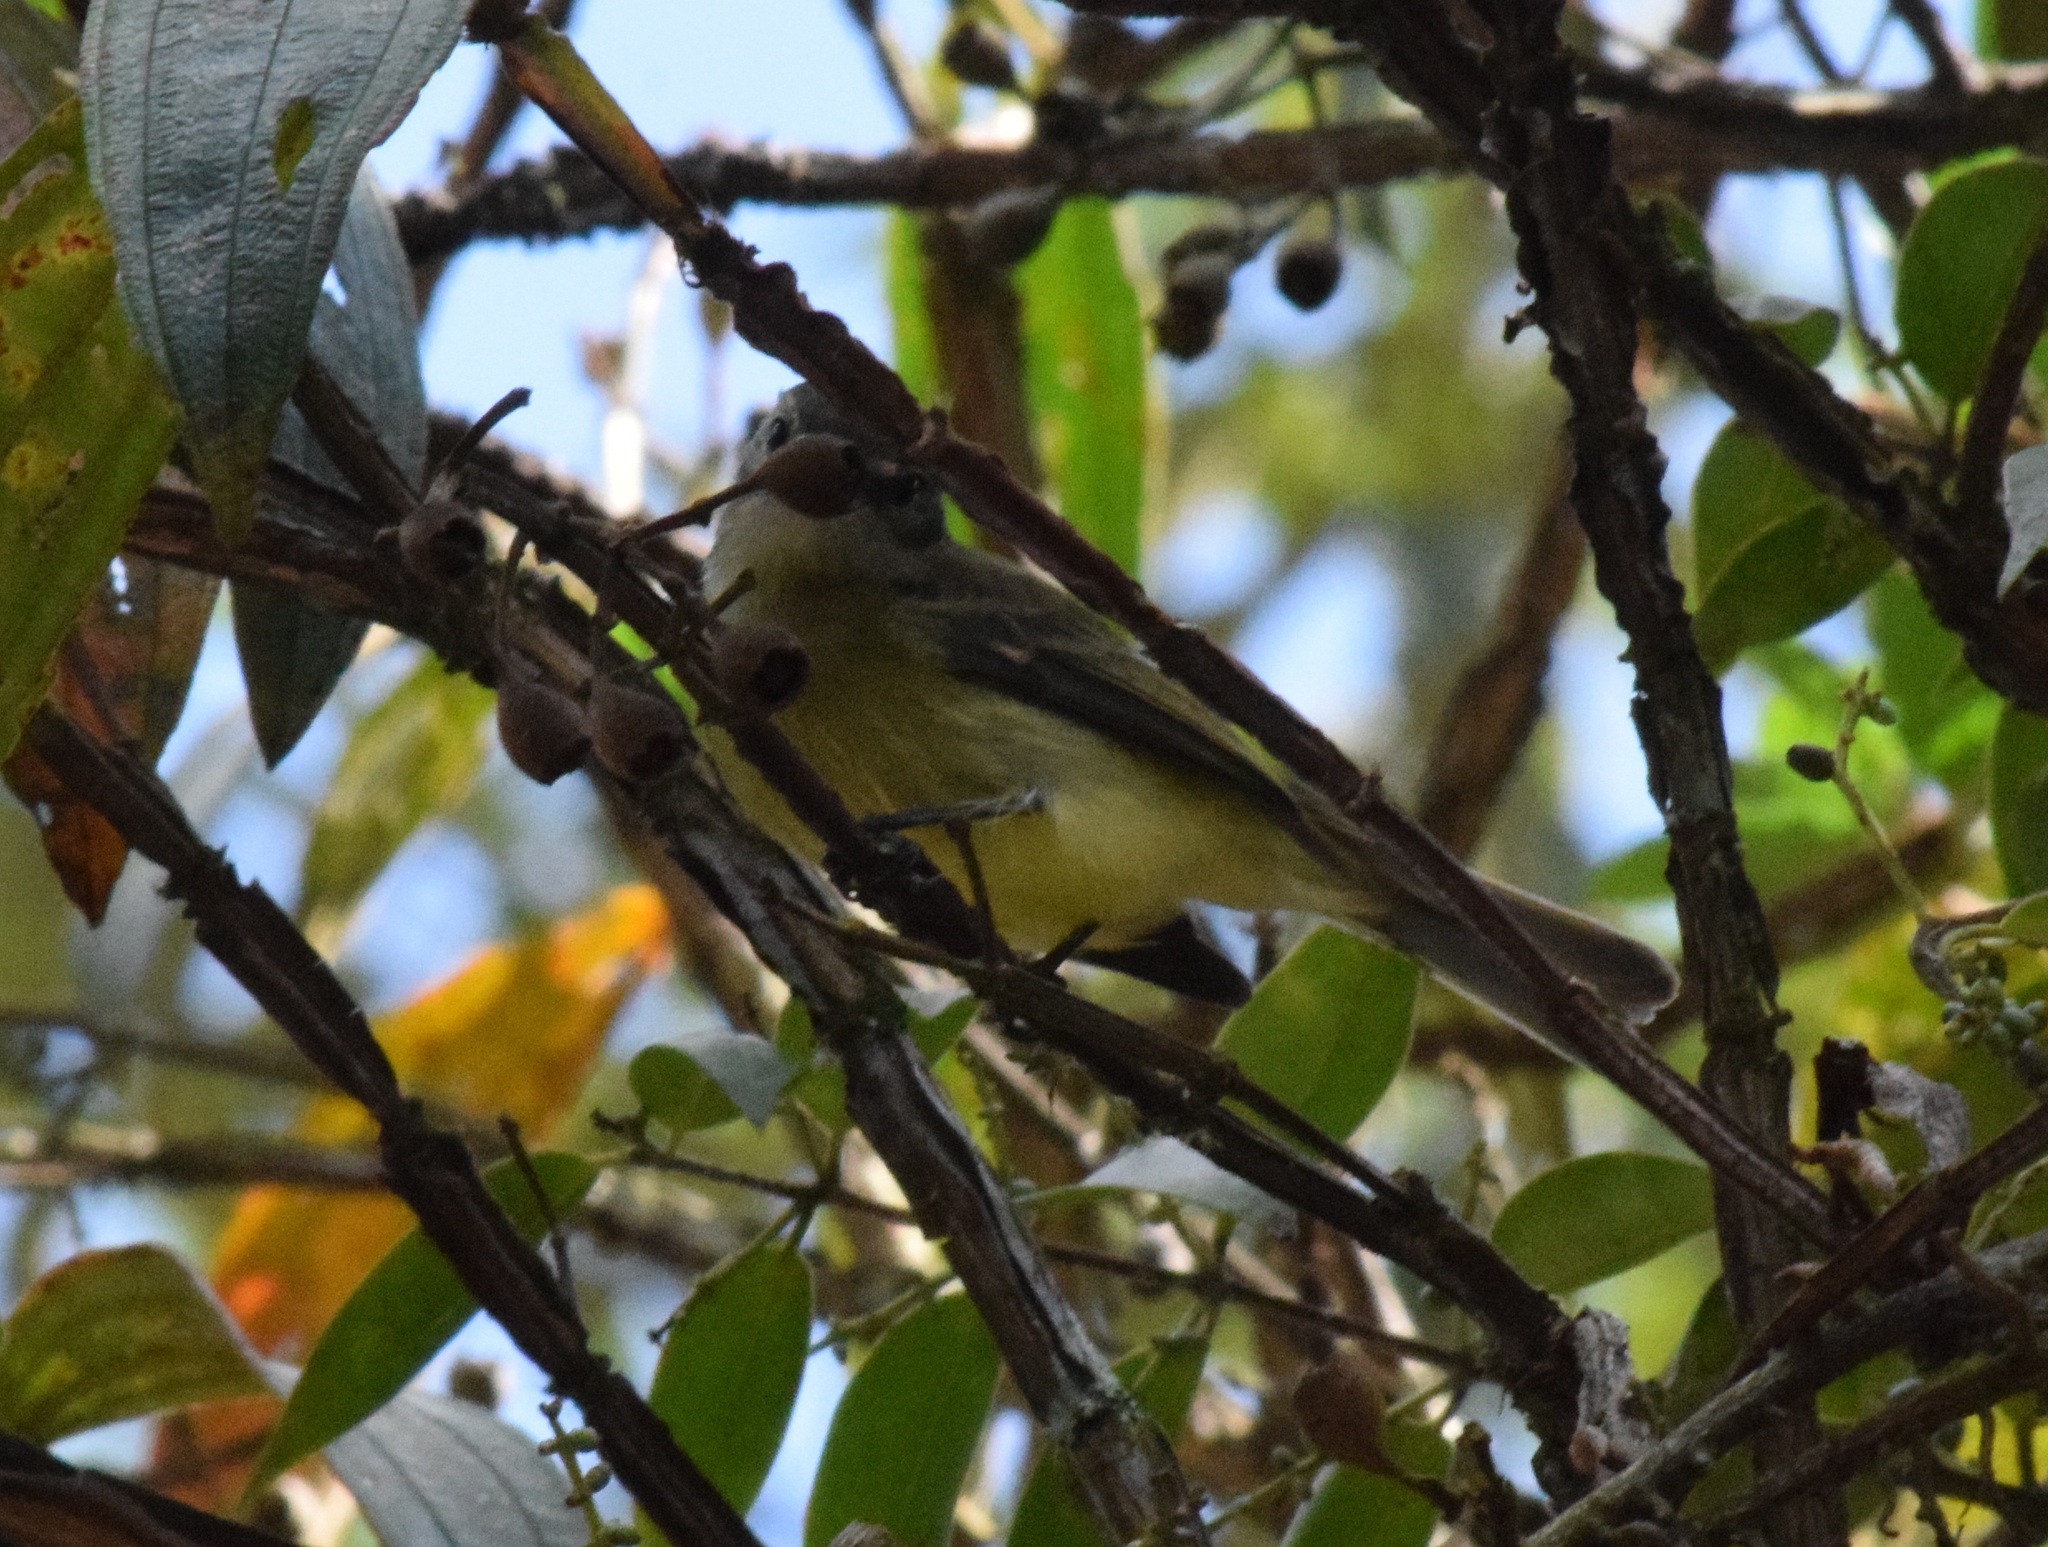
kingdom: Animalia
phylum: Chordata
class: Aves
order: Passeriformes
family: Parulidae
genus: Basileuterus
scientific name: Basileuterus culicivorus
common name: Golden-crowned warbler
